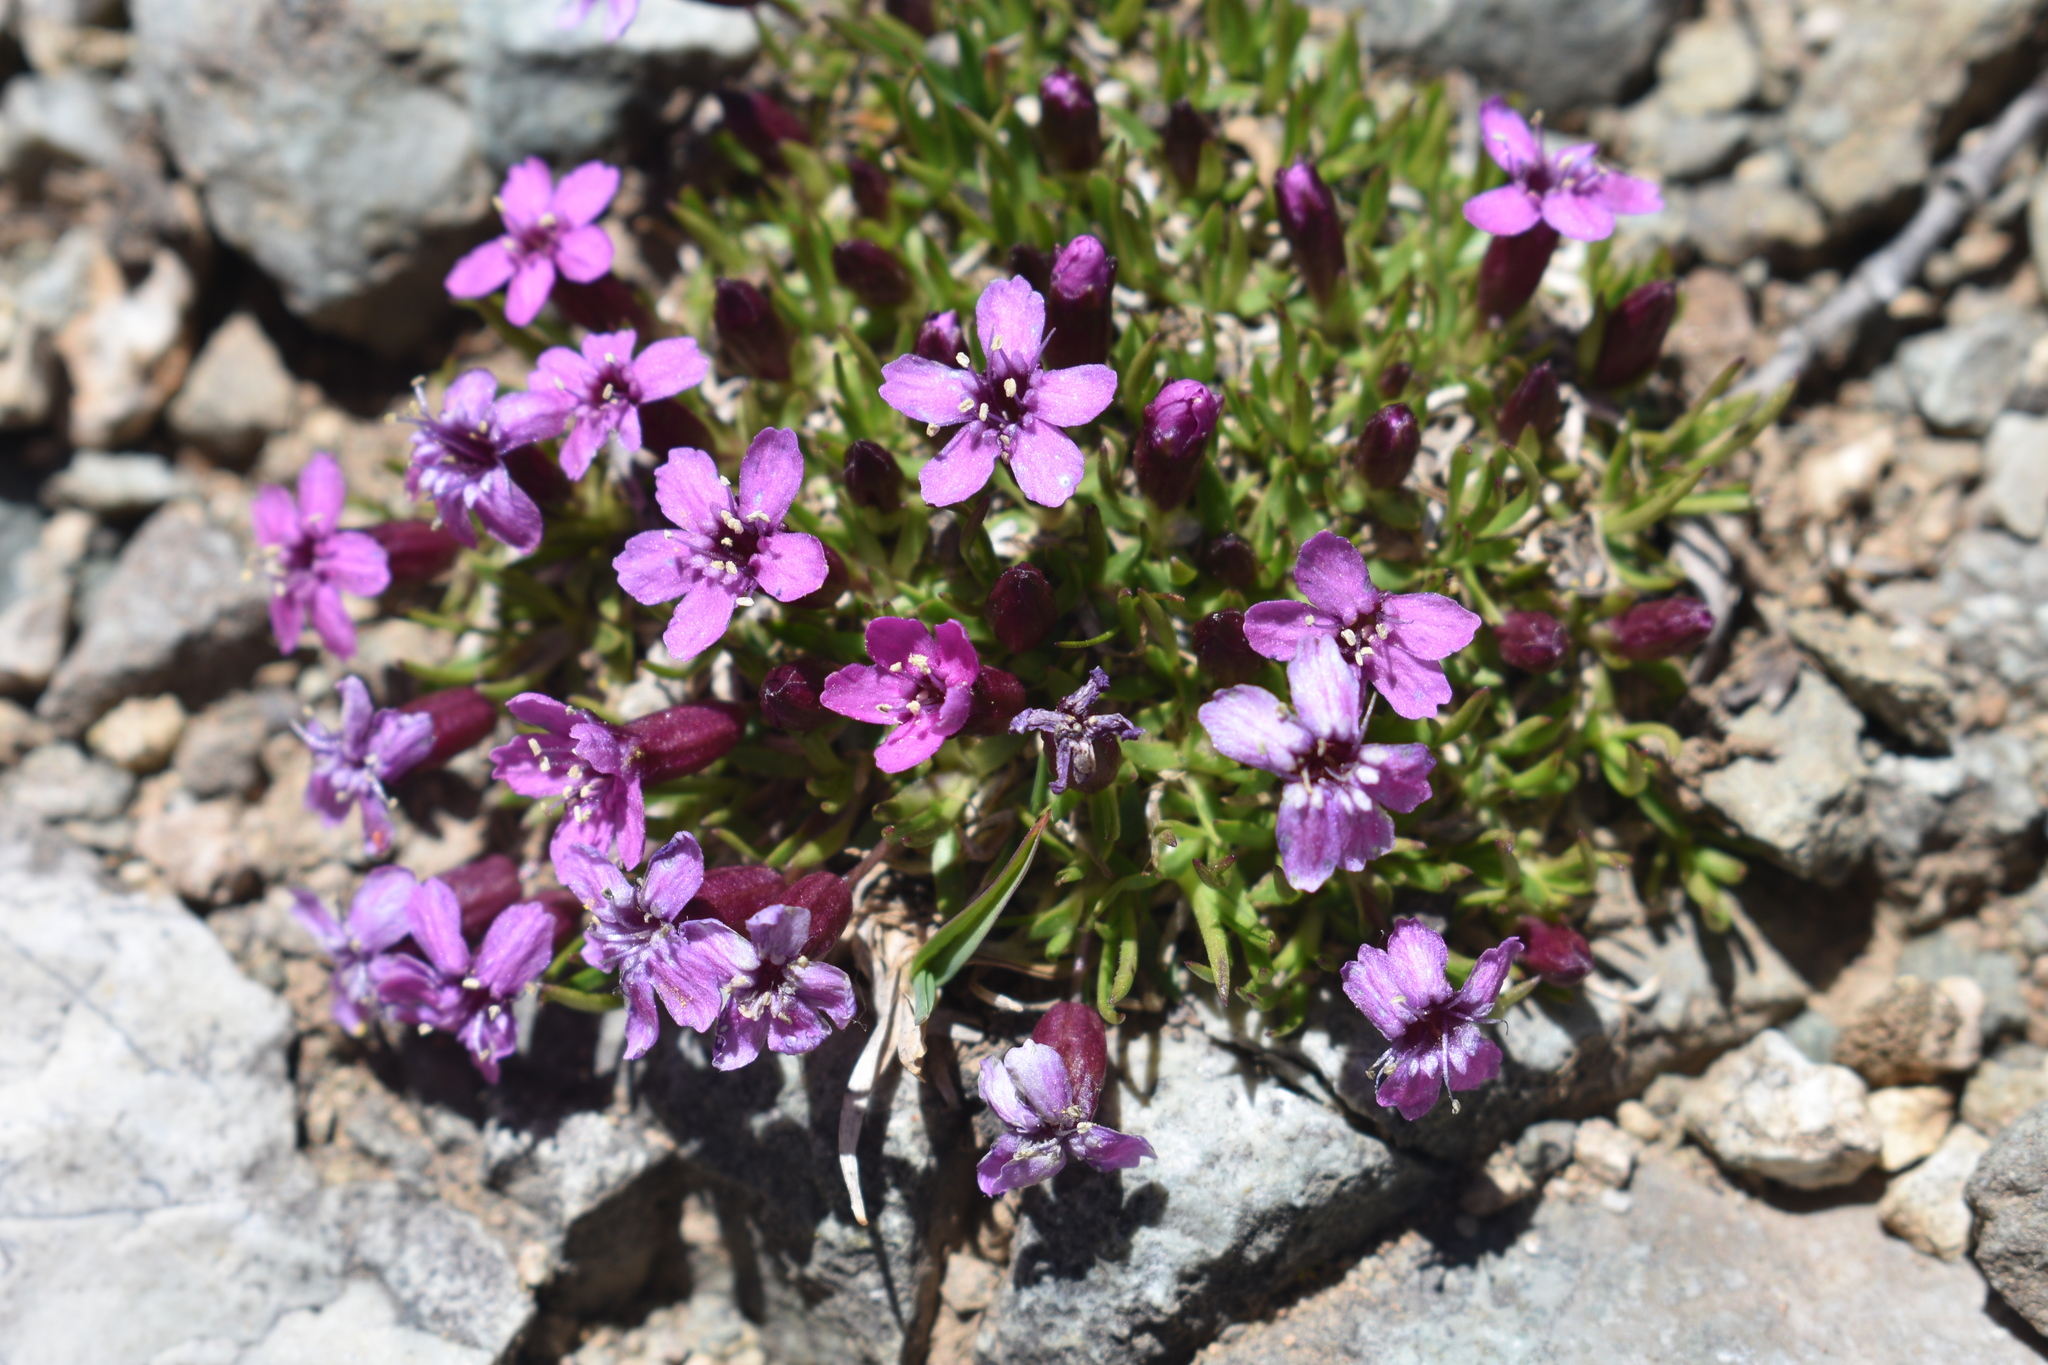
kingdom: Plantae
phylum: Tracheophyta
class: Magnoliopsida
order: Caryophyllales
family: Caryophyllaceae
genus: Silene
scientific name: Silene acaulis
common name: Moss campion
